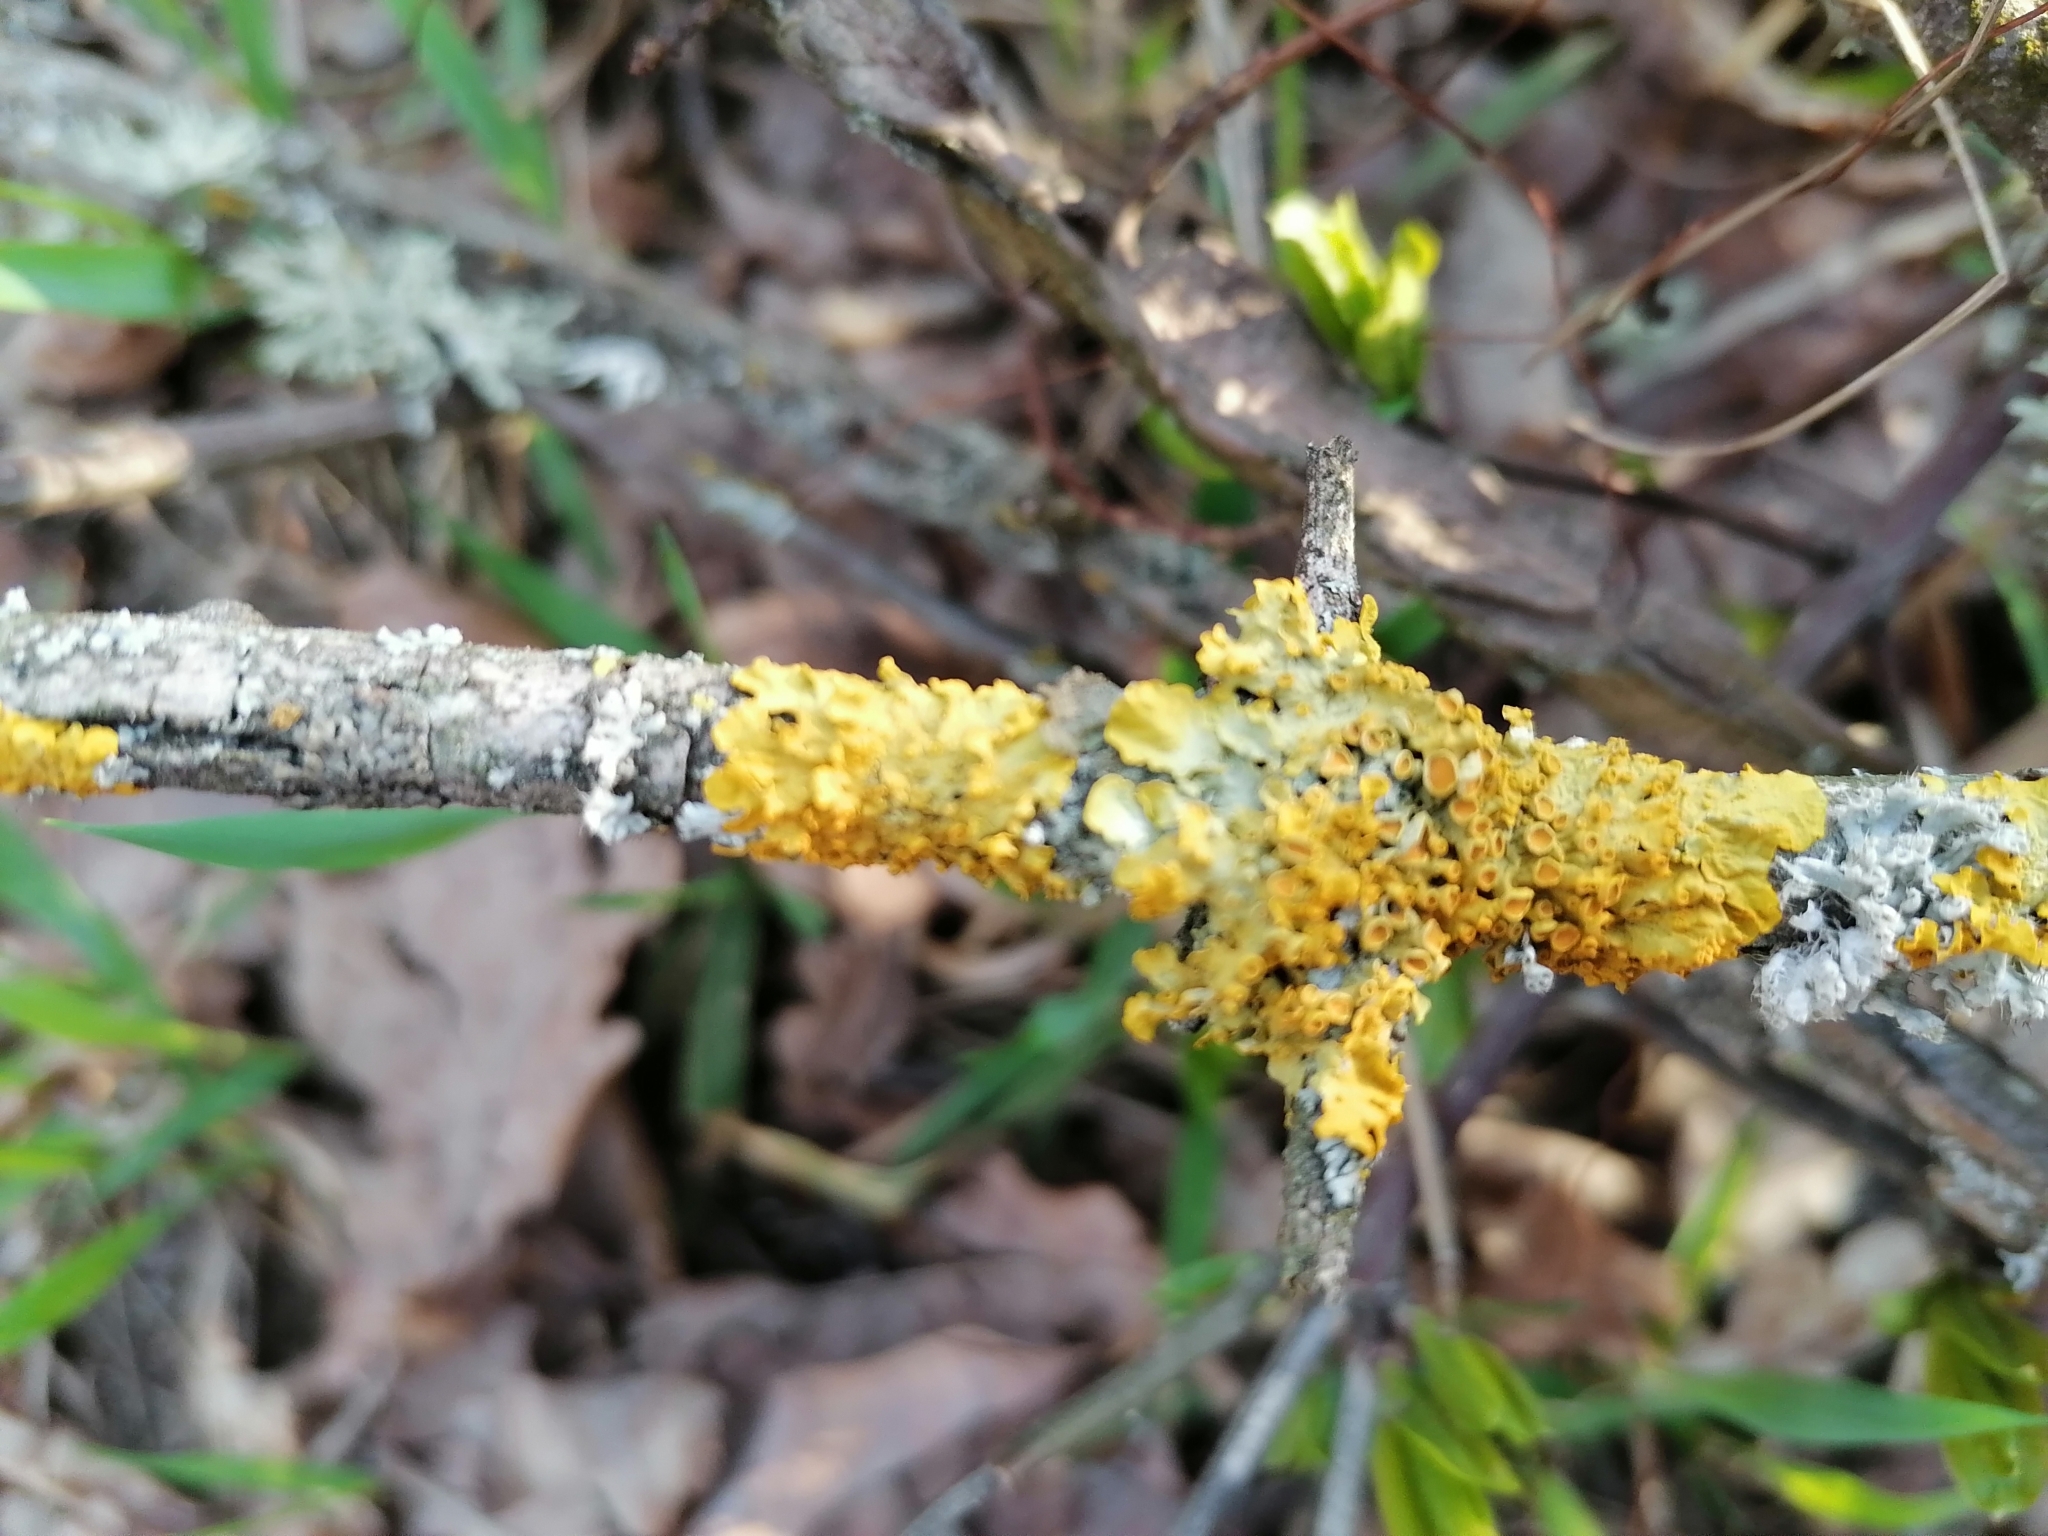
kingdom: Fungi
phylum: Ascomycota
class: Lecanoromycetes
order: Teloschistales
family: Teloschistaceae
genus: Xanthoria
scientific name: Xanthoria parietina
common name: Common orange lichen
